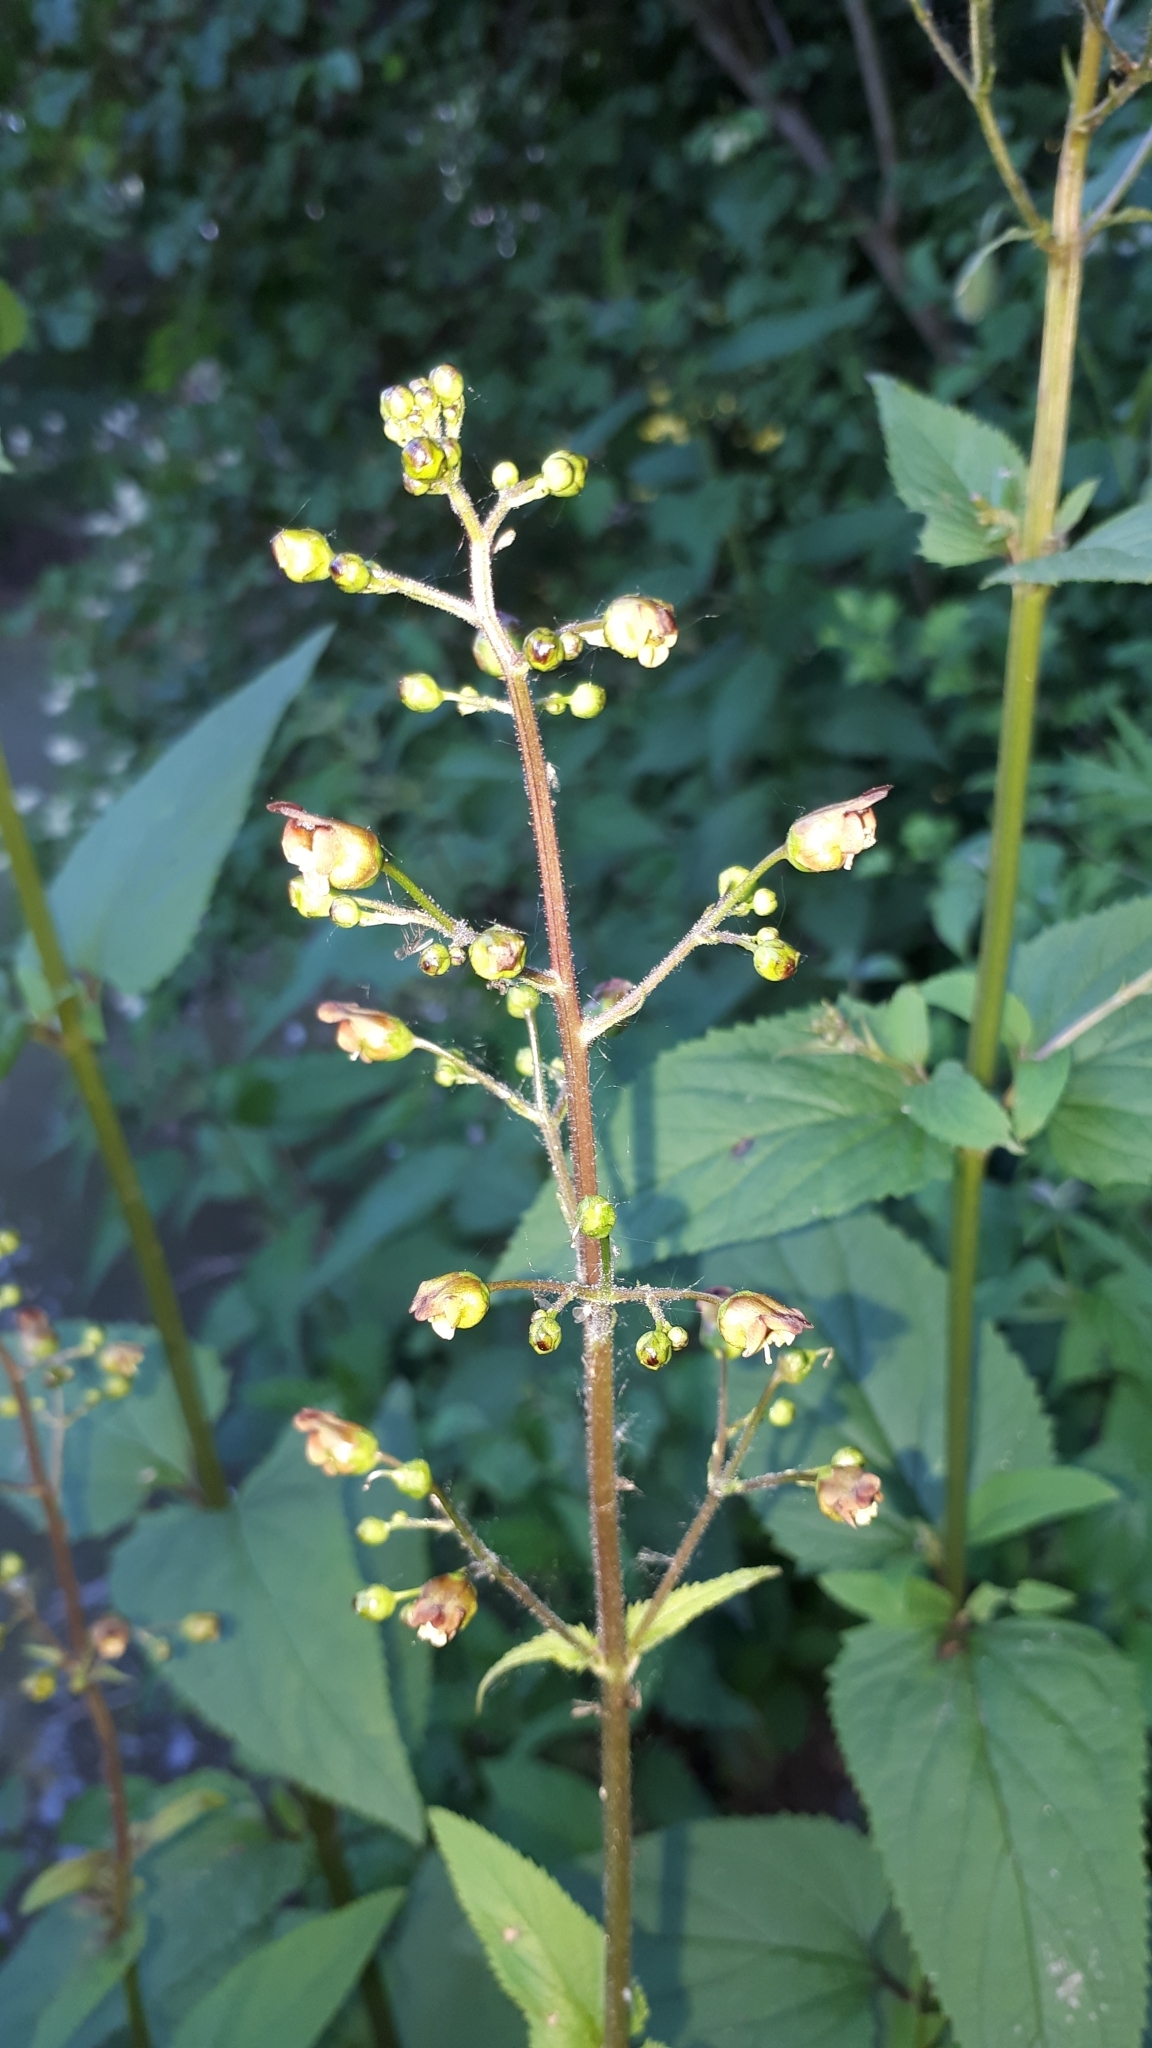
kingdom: Plantae
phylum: Tracheophyta
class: Magnoliopsida
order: Lamiales
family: Scrophulariaceae
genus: Scrophularia
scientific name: Scrophularia nodosa
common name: Common figwort
